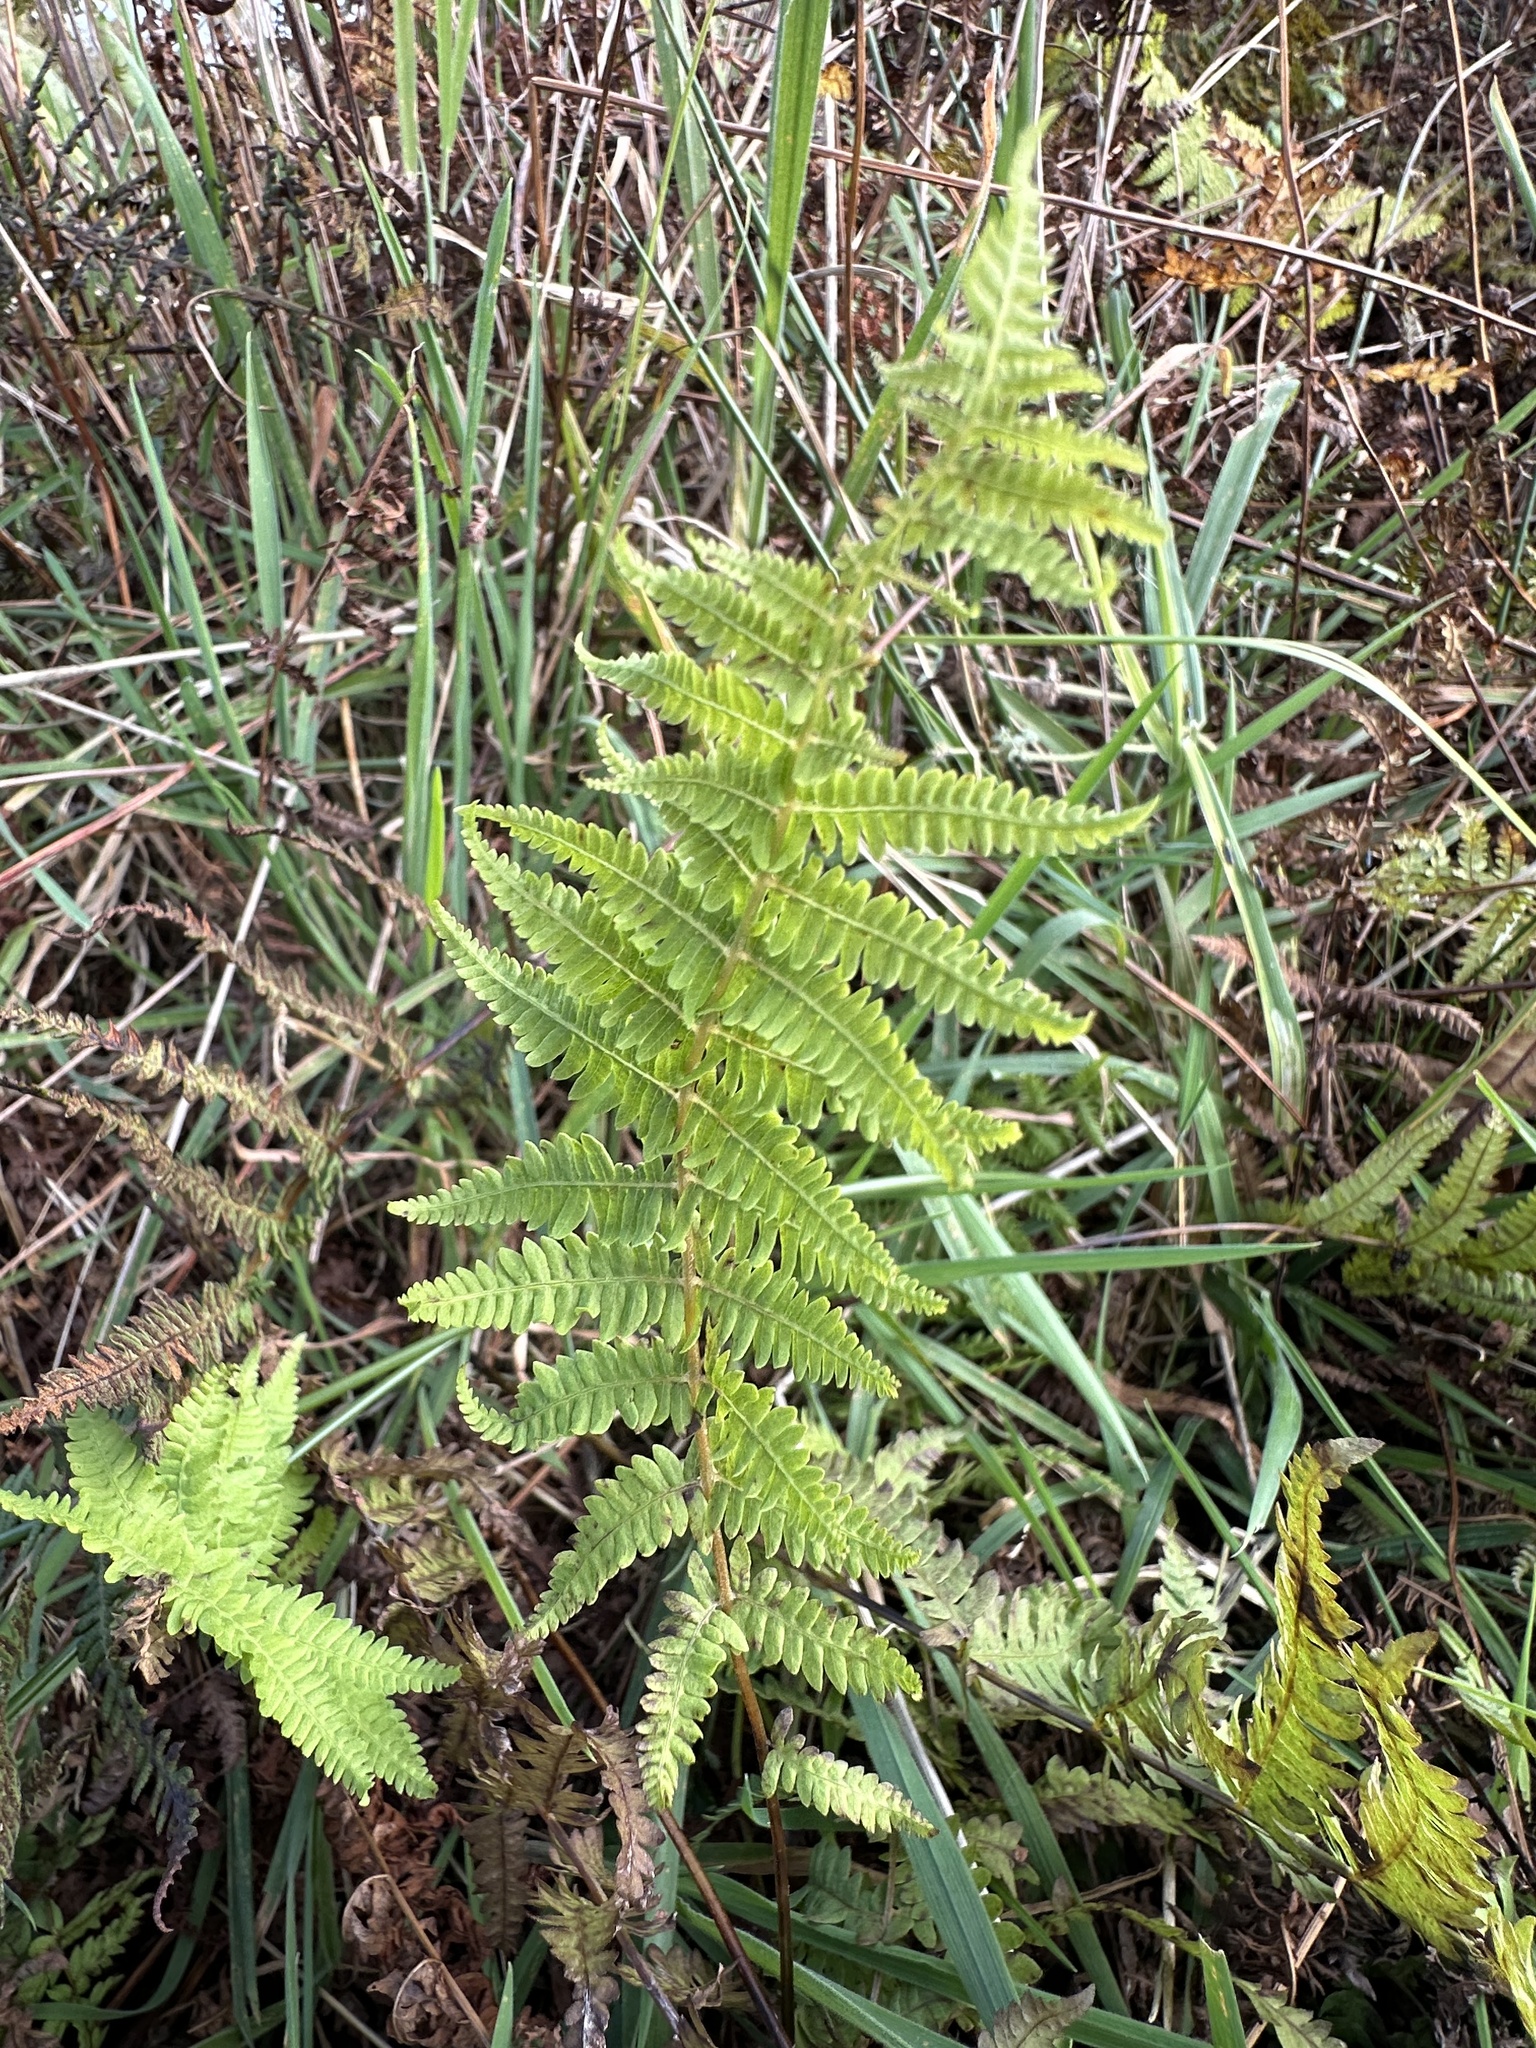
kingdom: Plantae
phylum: Tracheophyta
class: Polypodiopsida
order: Polypodiales
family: Thelypteridaceae
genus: Thelypteris
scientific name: Thelypteris palustris
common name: Marsh fern
